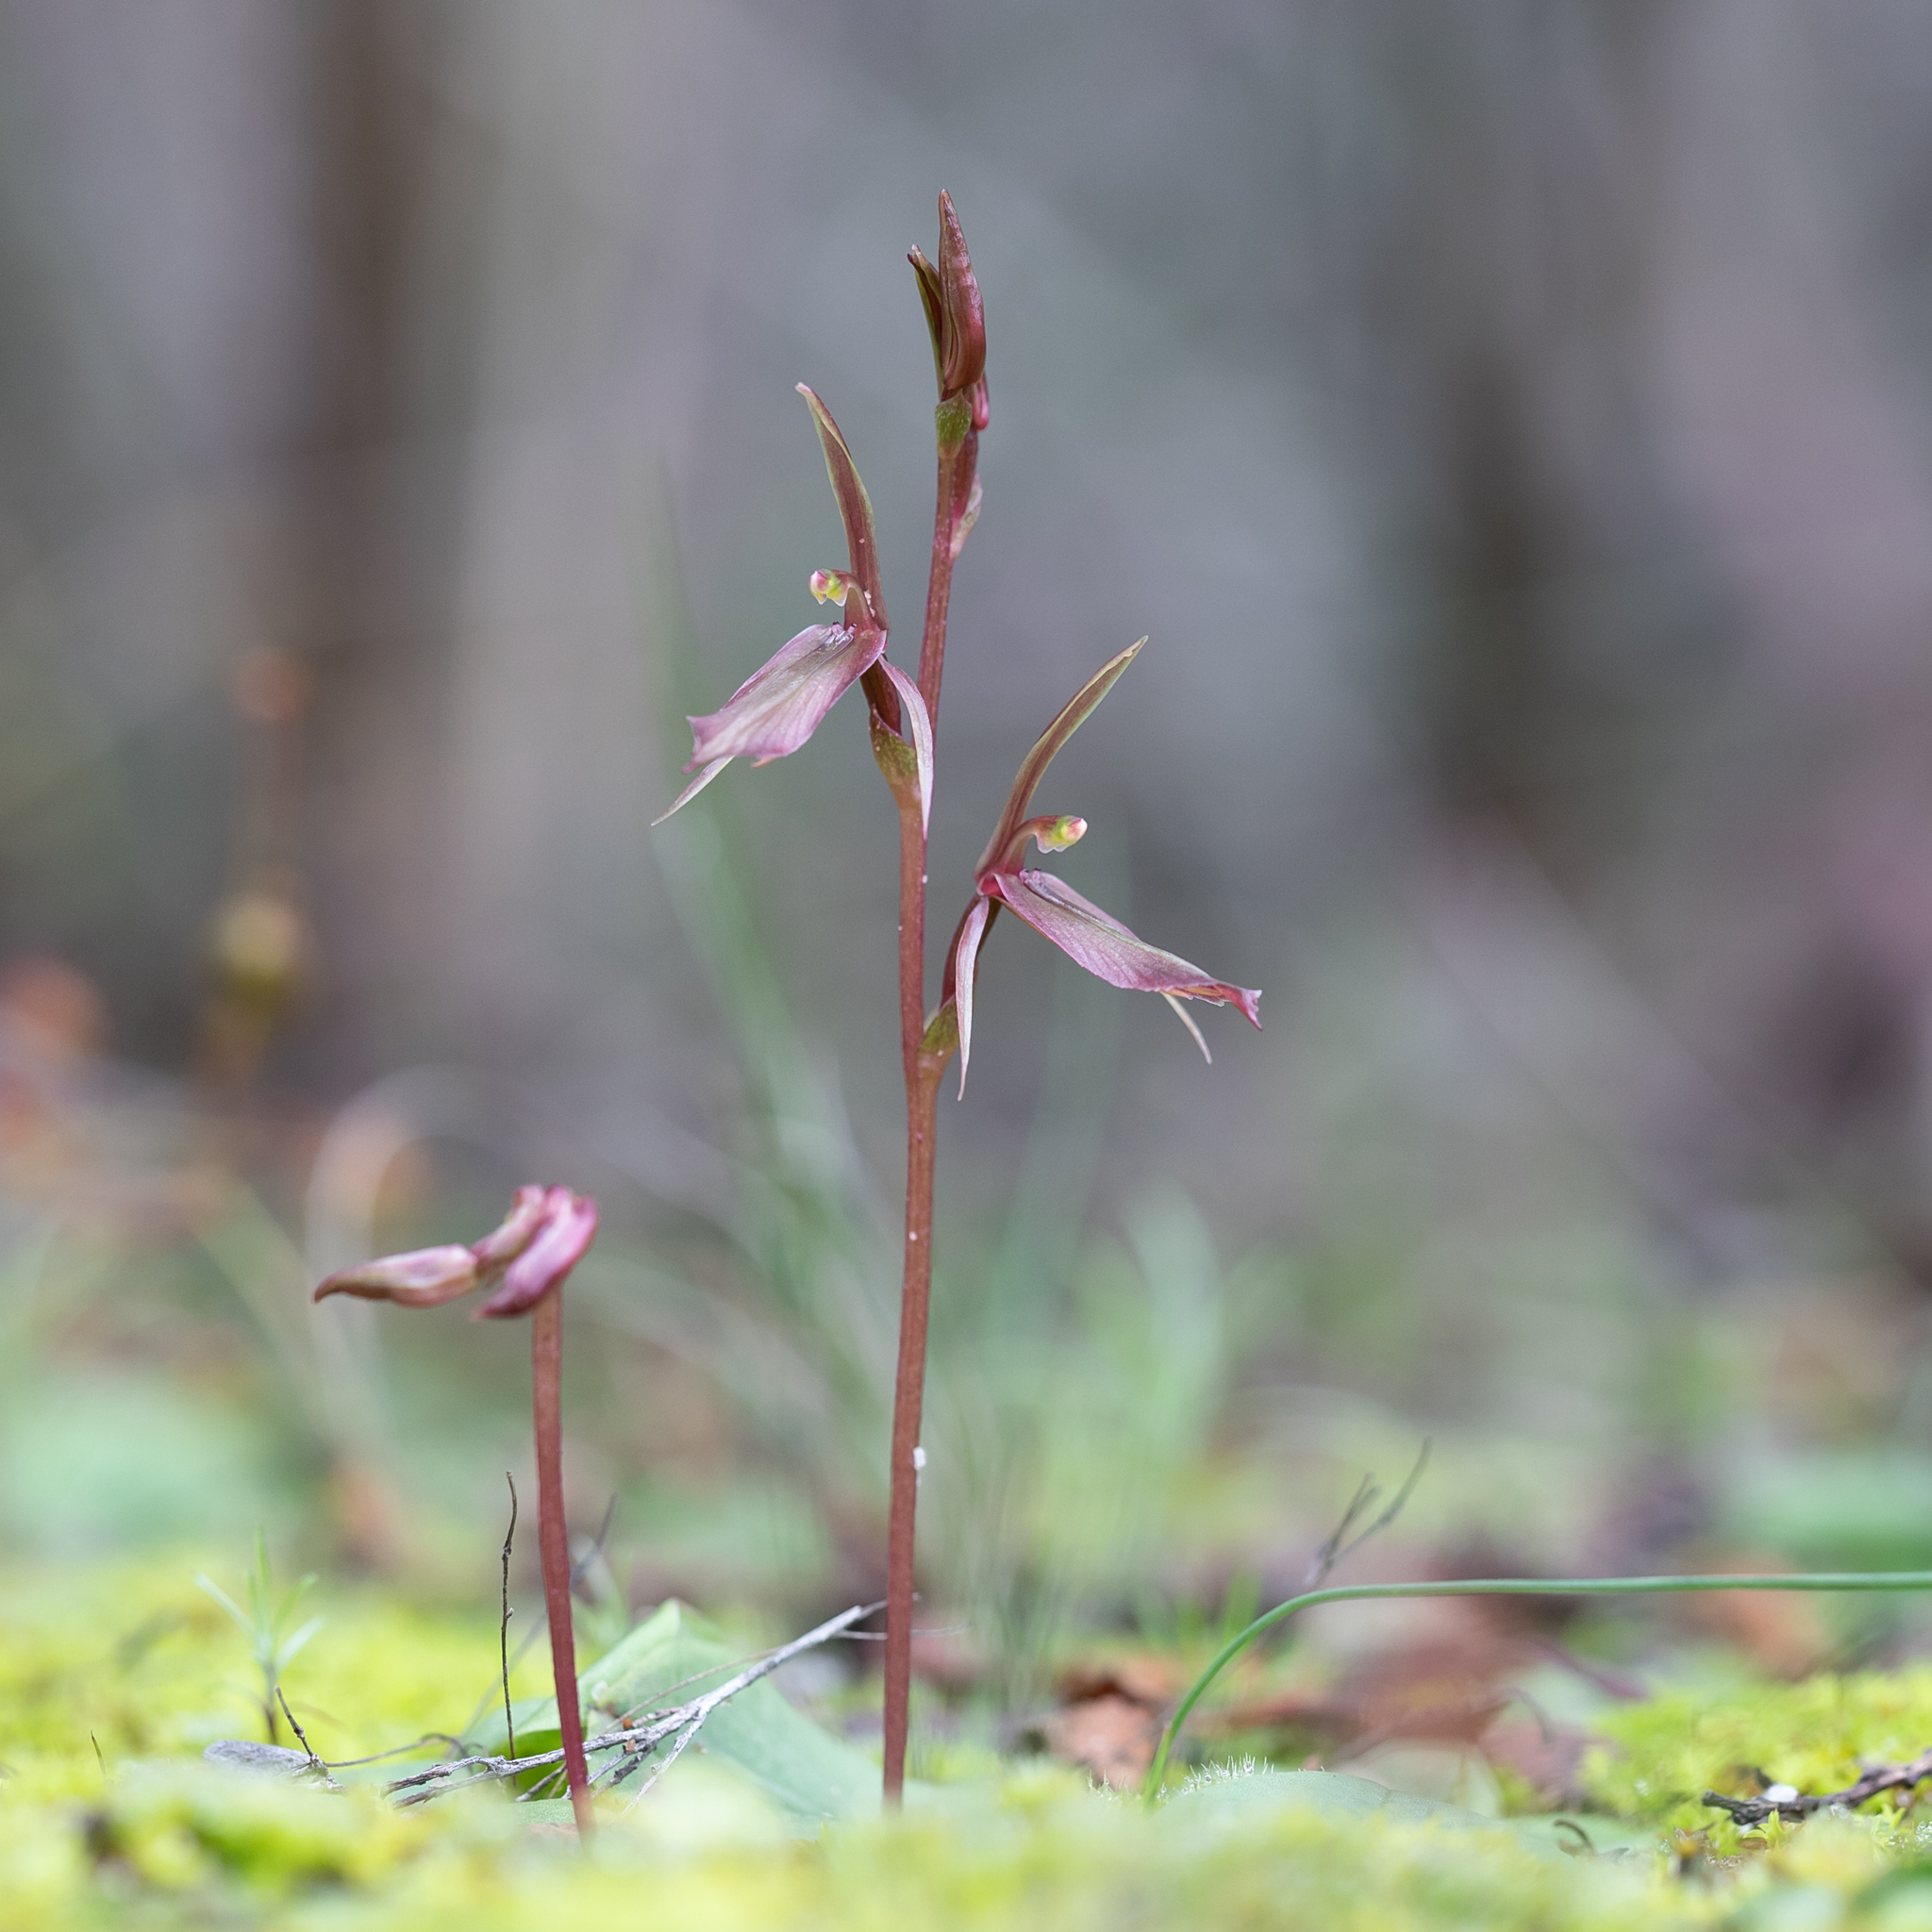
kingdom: Plantae
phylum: Tracheophyta
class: Liliopsida
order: Asparagales
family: Orchidaceae
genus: Cyrtostylis
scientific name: Cyrtostylis robusta
